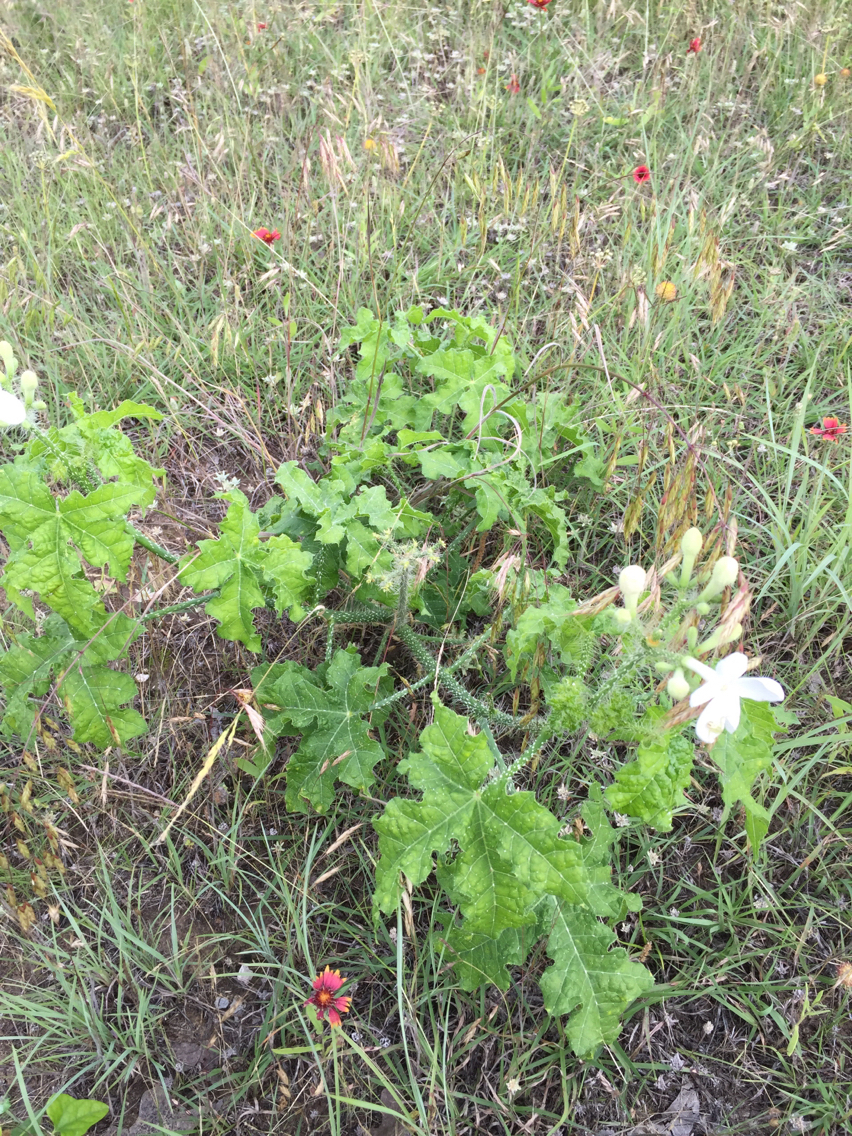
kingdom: Plantae
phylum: Tracheophyta
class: Magnoliopsida
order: Malpighiales
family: Euphorbiaceae
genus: Cnidoscolus
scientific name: Cnidoscolus texanus
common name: Texas bull-nettle
